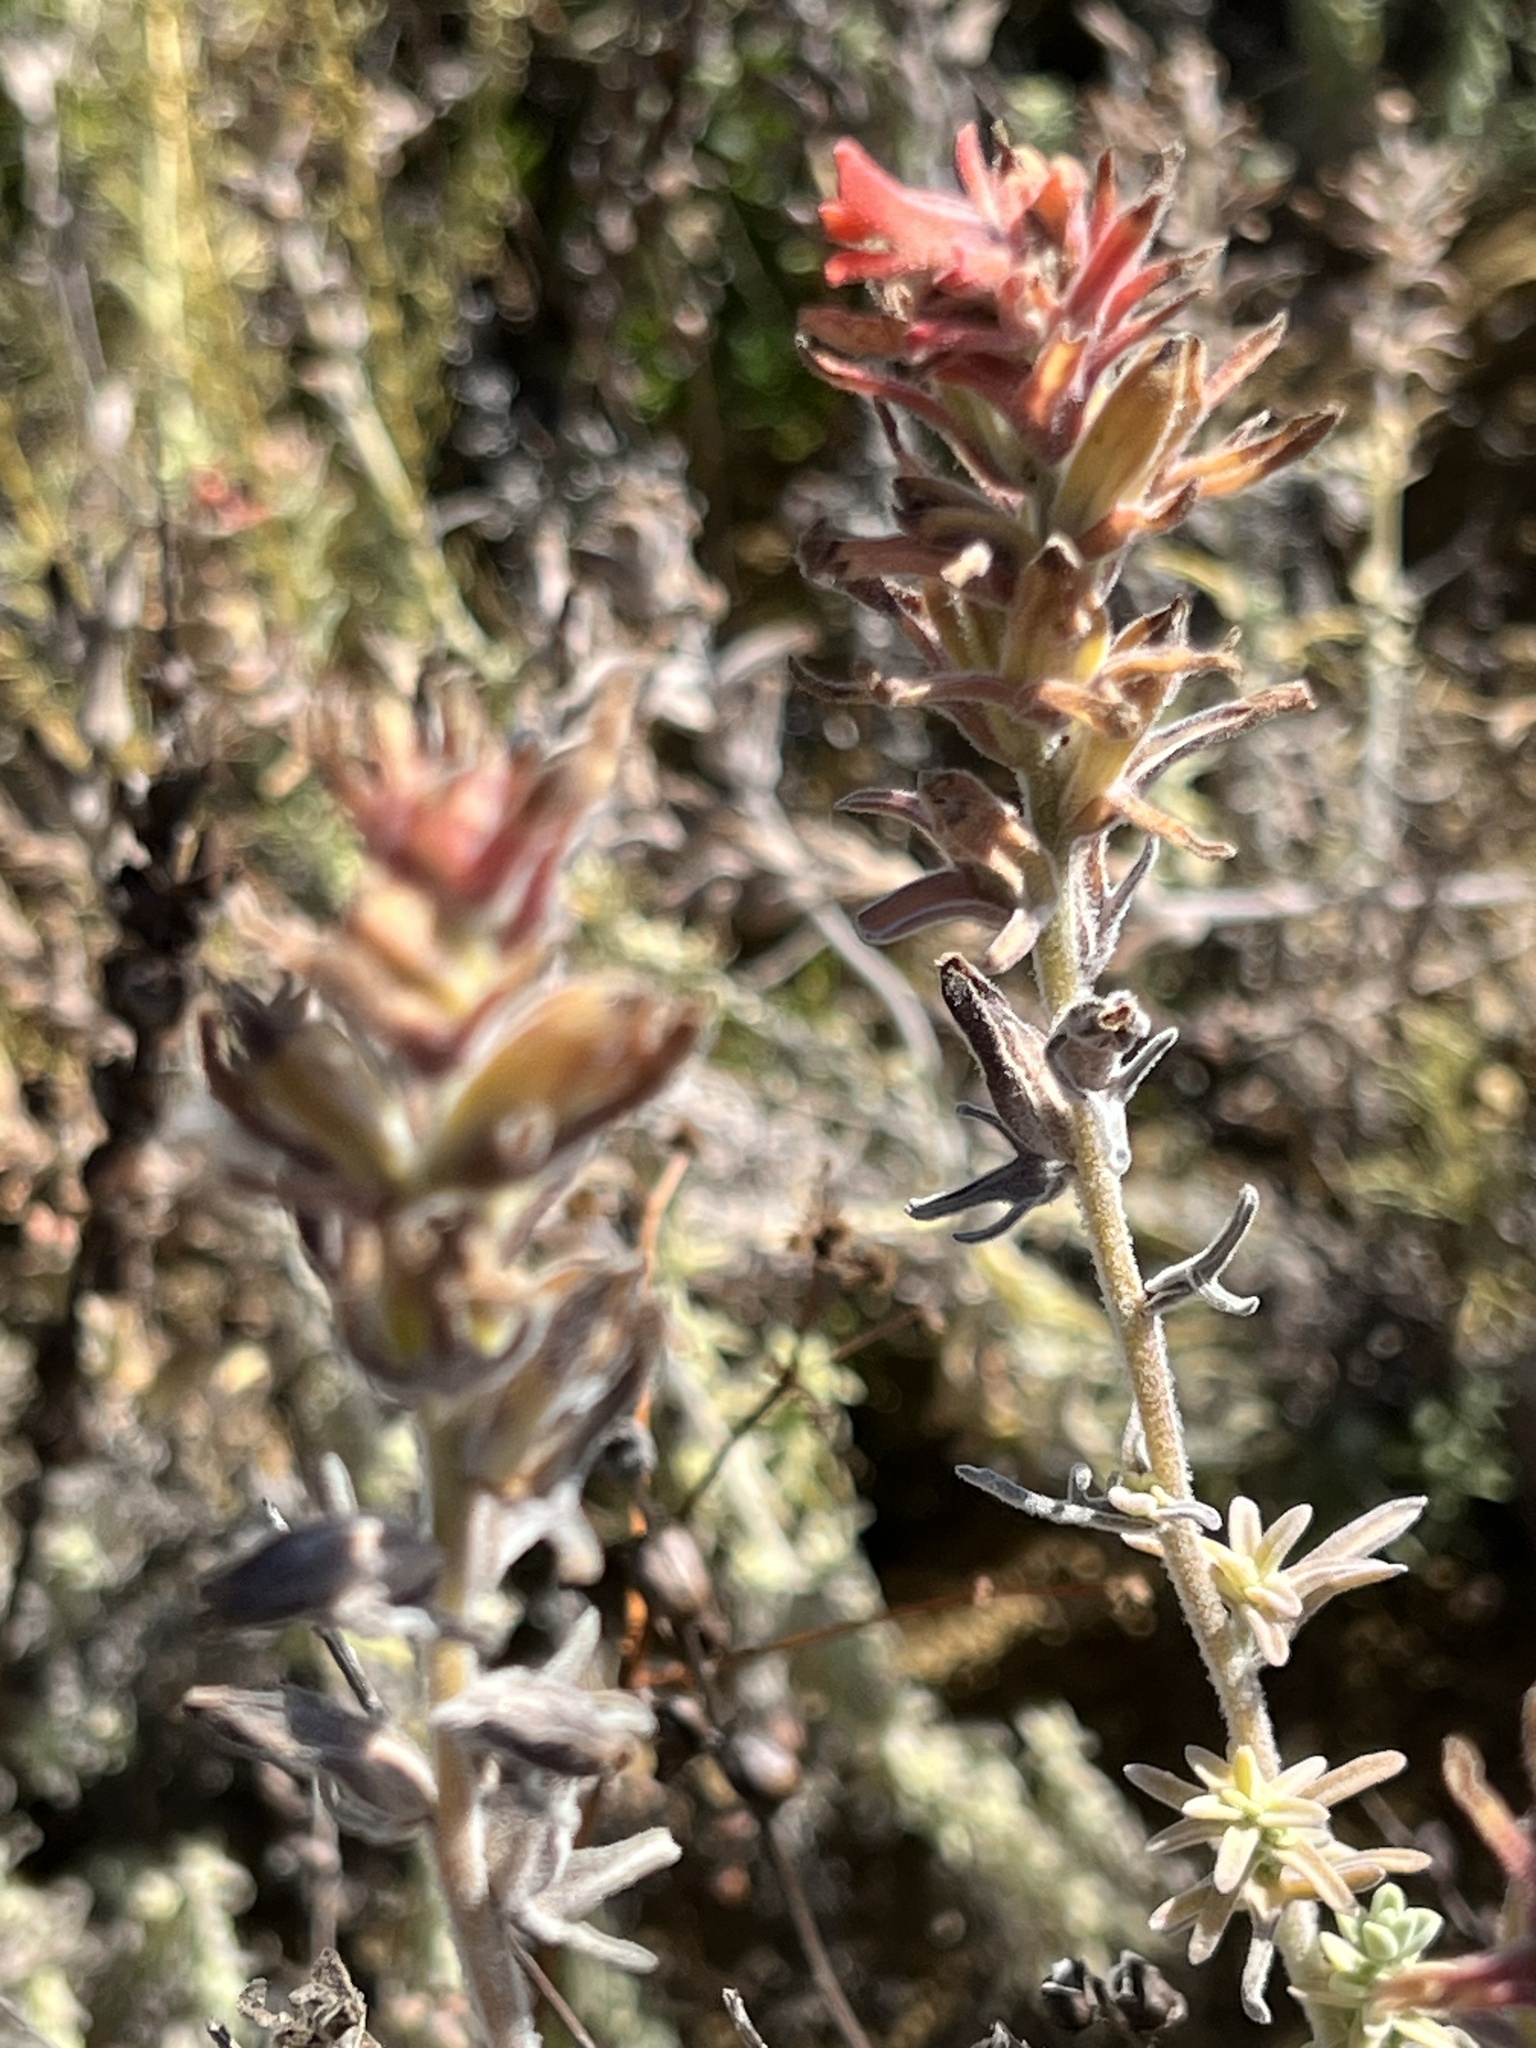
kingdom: Plantae
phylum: Tracheophyta
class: Magnoliopsida
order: Lamiales
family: Orobanchaceae
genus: Castilleja
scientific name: Castilleja foliolosa
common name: Woolly indian paintbrush
